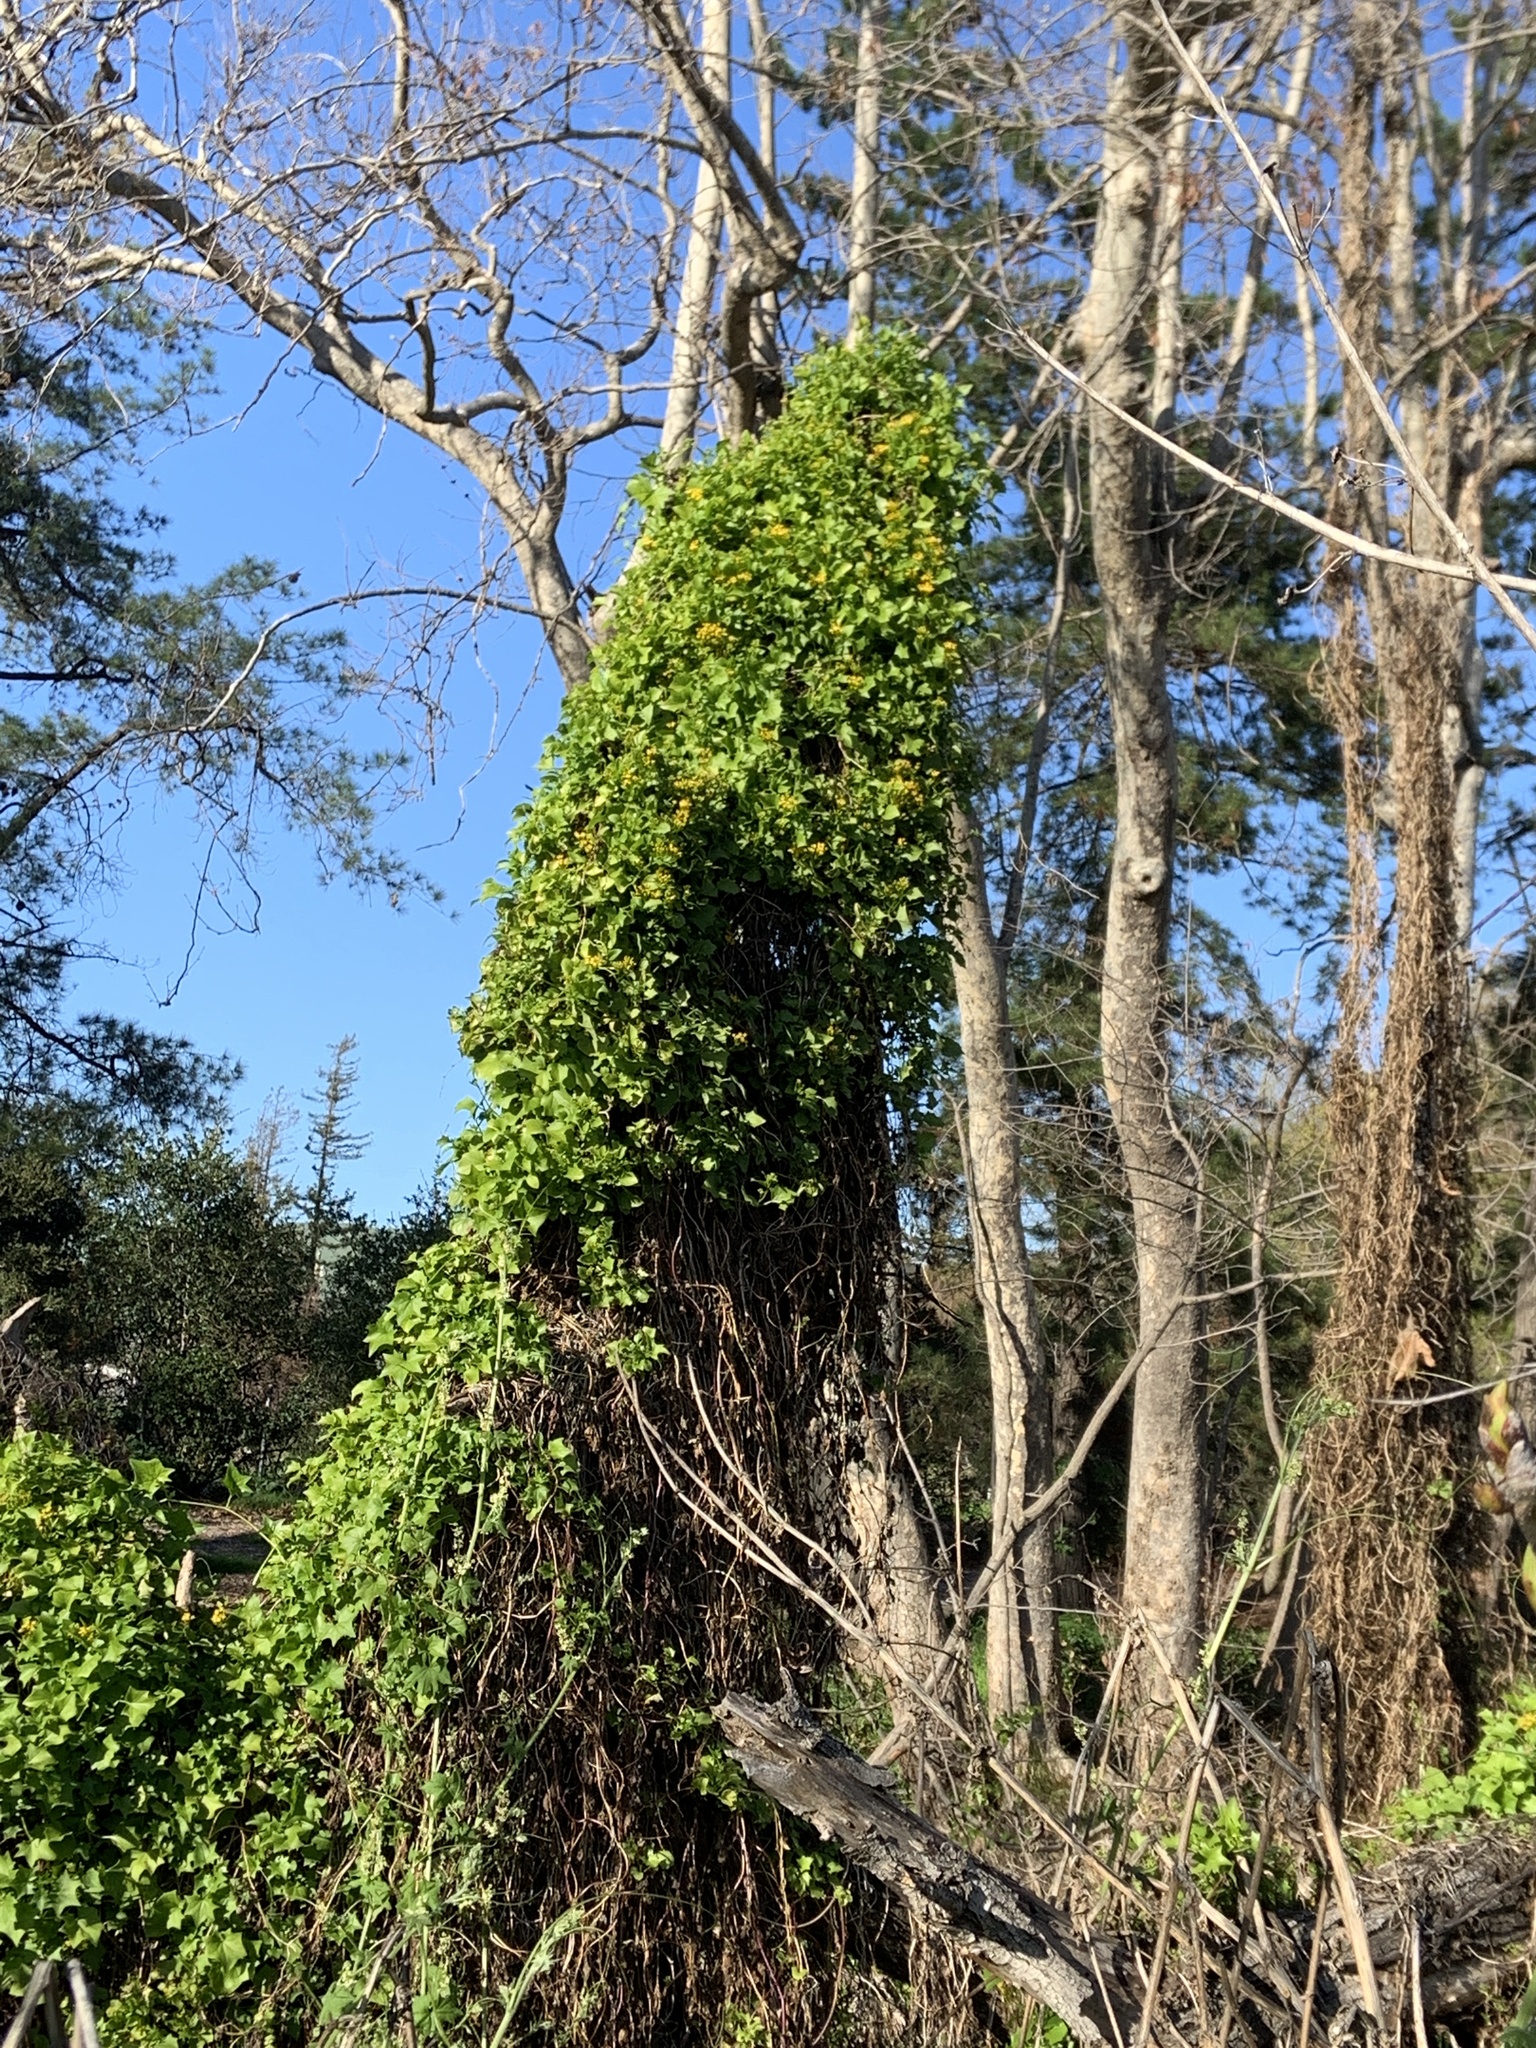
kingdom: Plantae
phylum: Tracheophyta
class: Magnoliopsida
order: Asterales
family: Asteraceae
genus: Delairea
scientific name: Delairea odorata
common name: Cape-ivy
